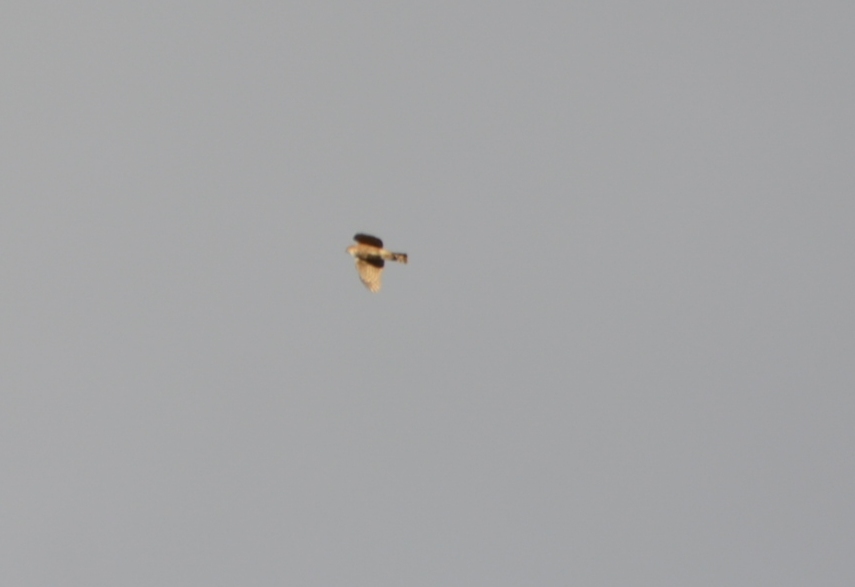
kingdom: Animalia
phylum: Chordata
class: Aves
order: Accipitriformes
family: Accipitridae
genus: Accipiter
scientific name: Accipiter striatus
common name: Sharp-shinned hawk
